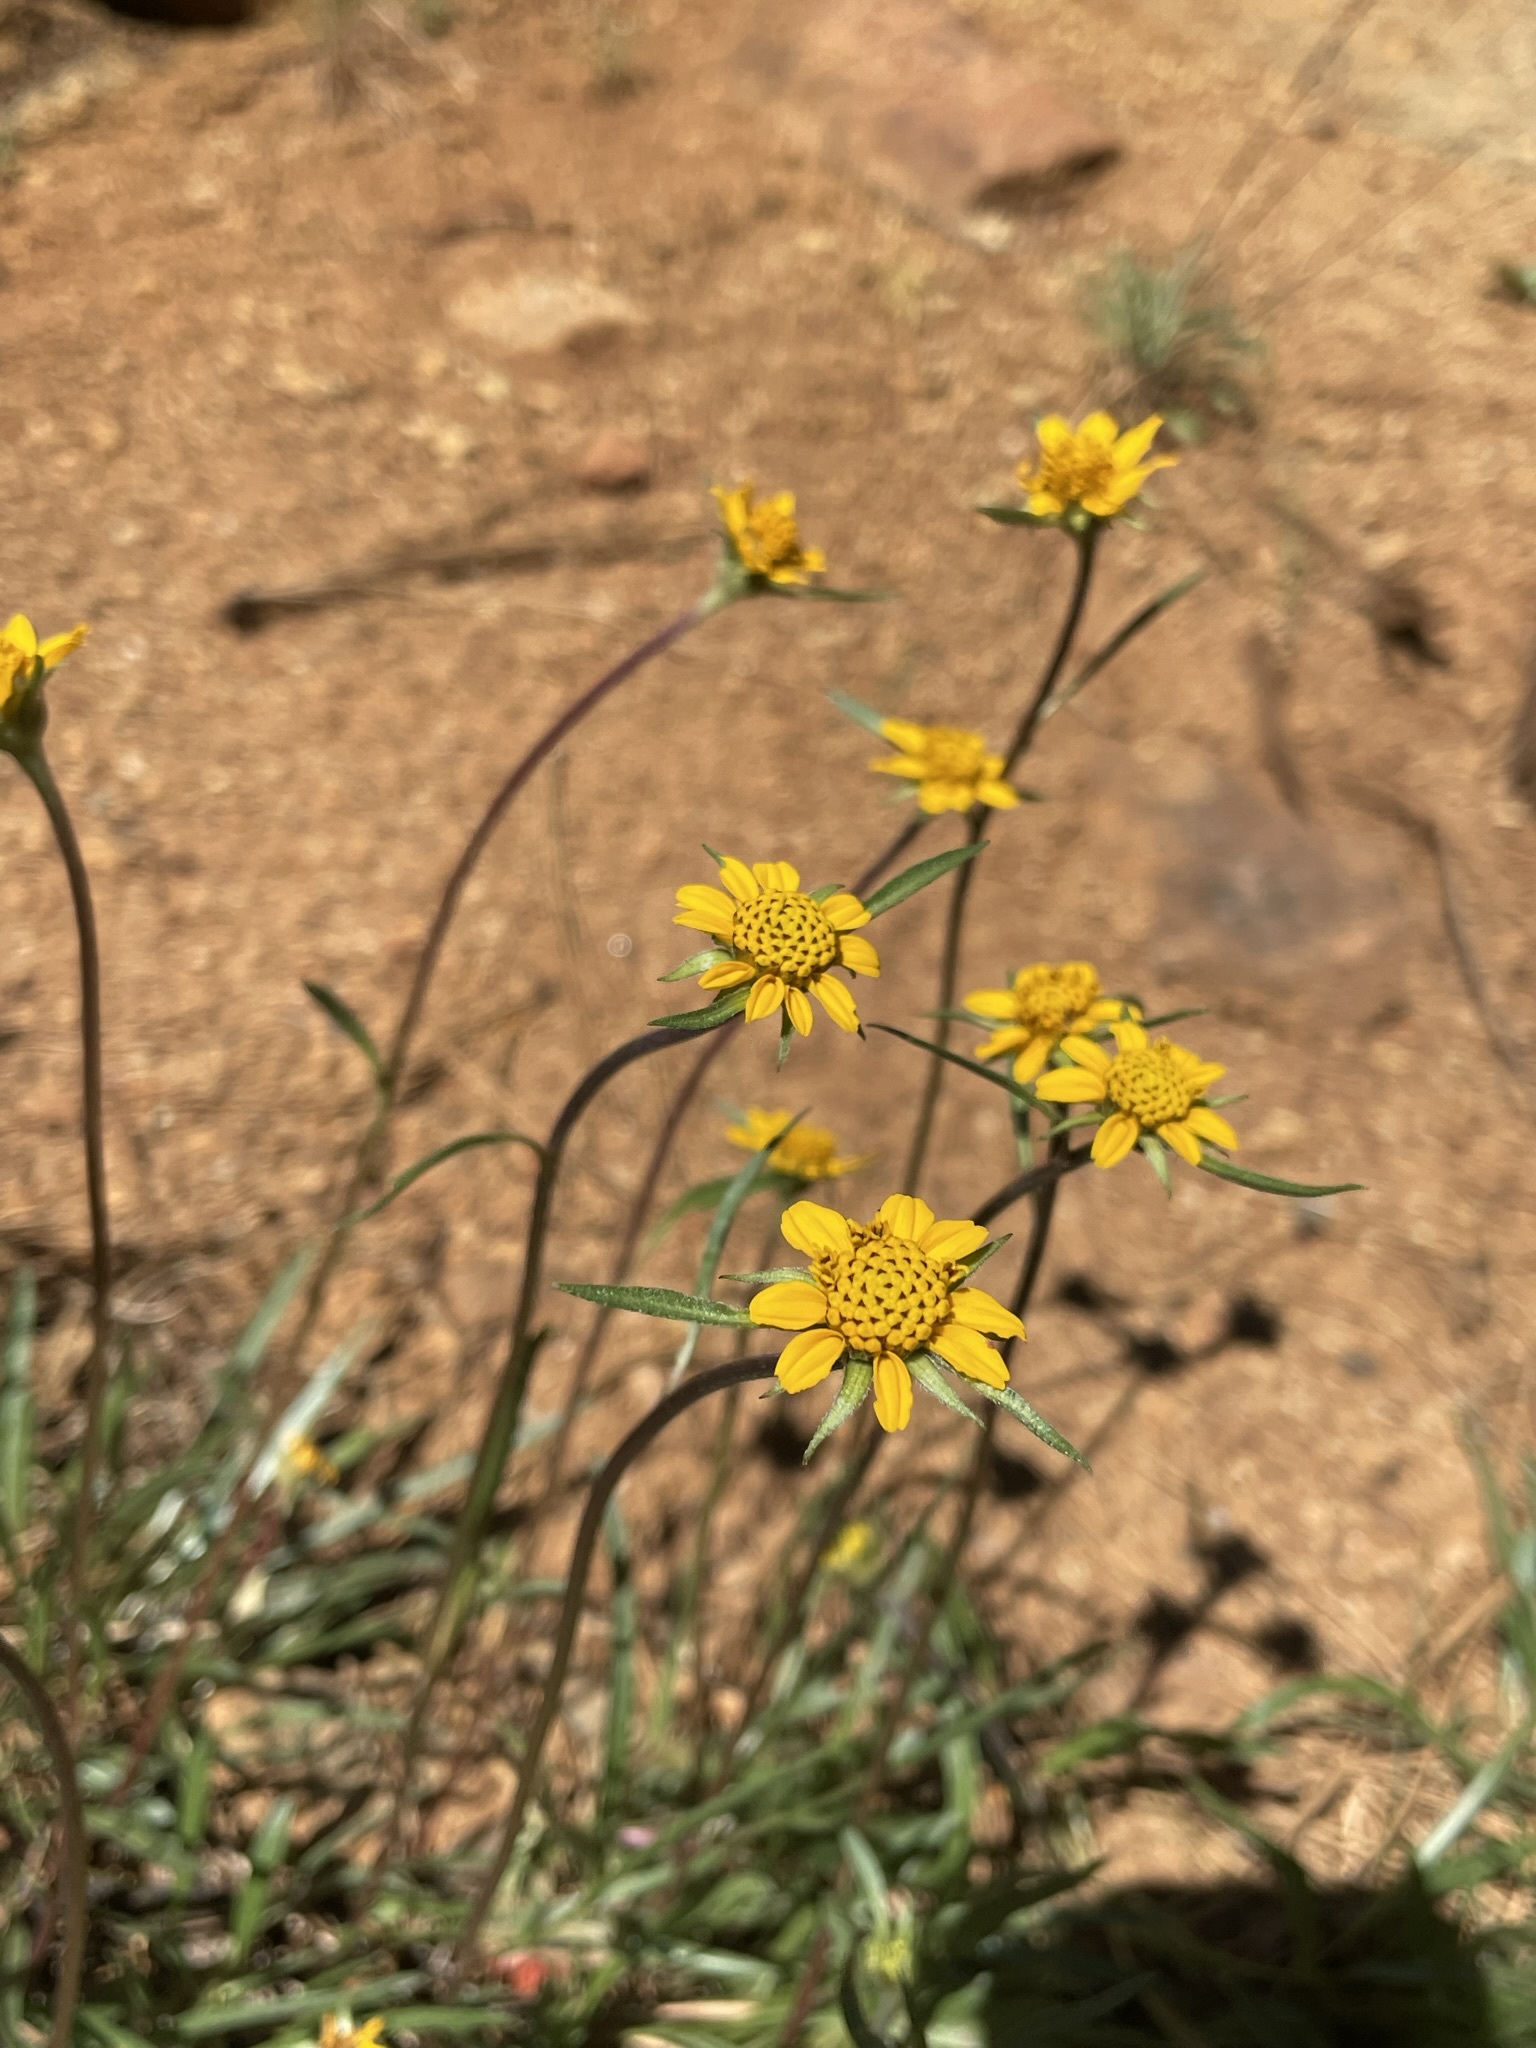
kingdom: Plantae
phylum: Tracheophyta
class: Magnoliopsida
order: Asterales
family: Asteraceae
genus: Helianthella
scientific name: Helianthella californica
